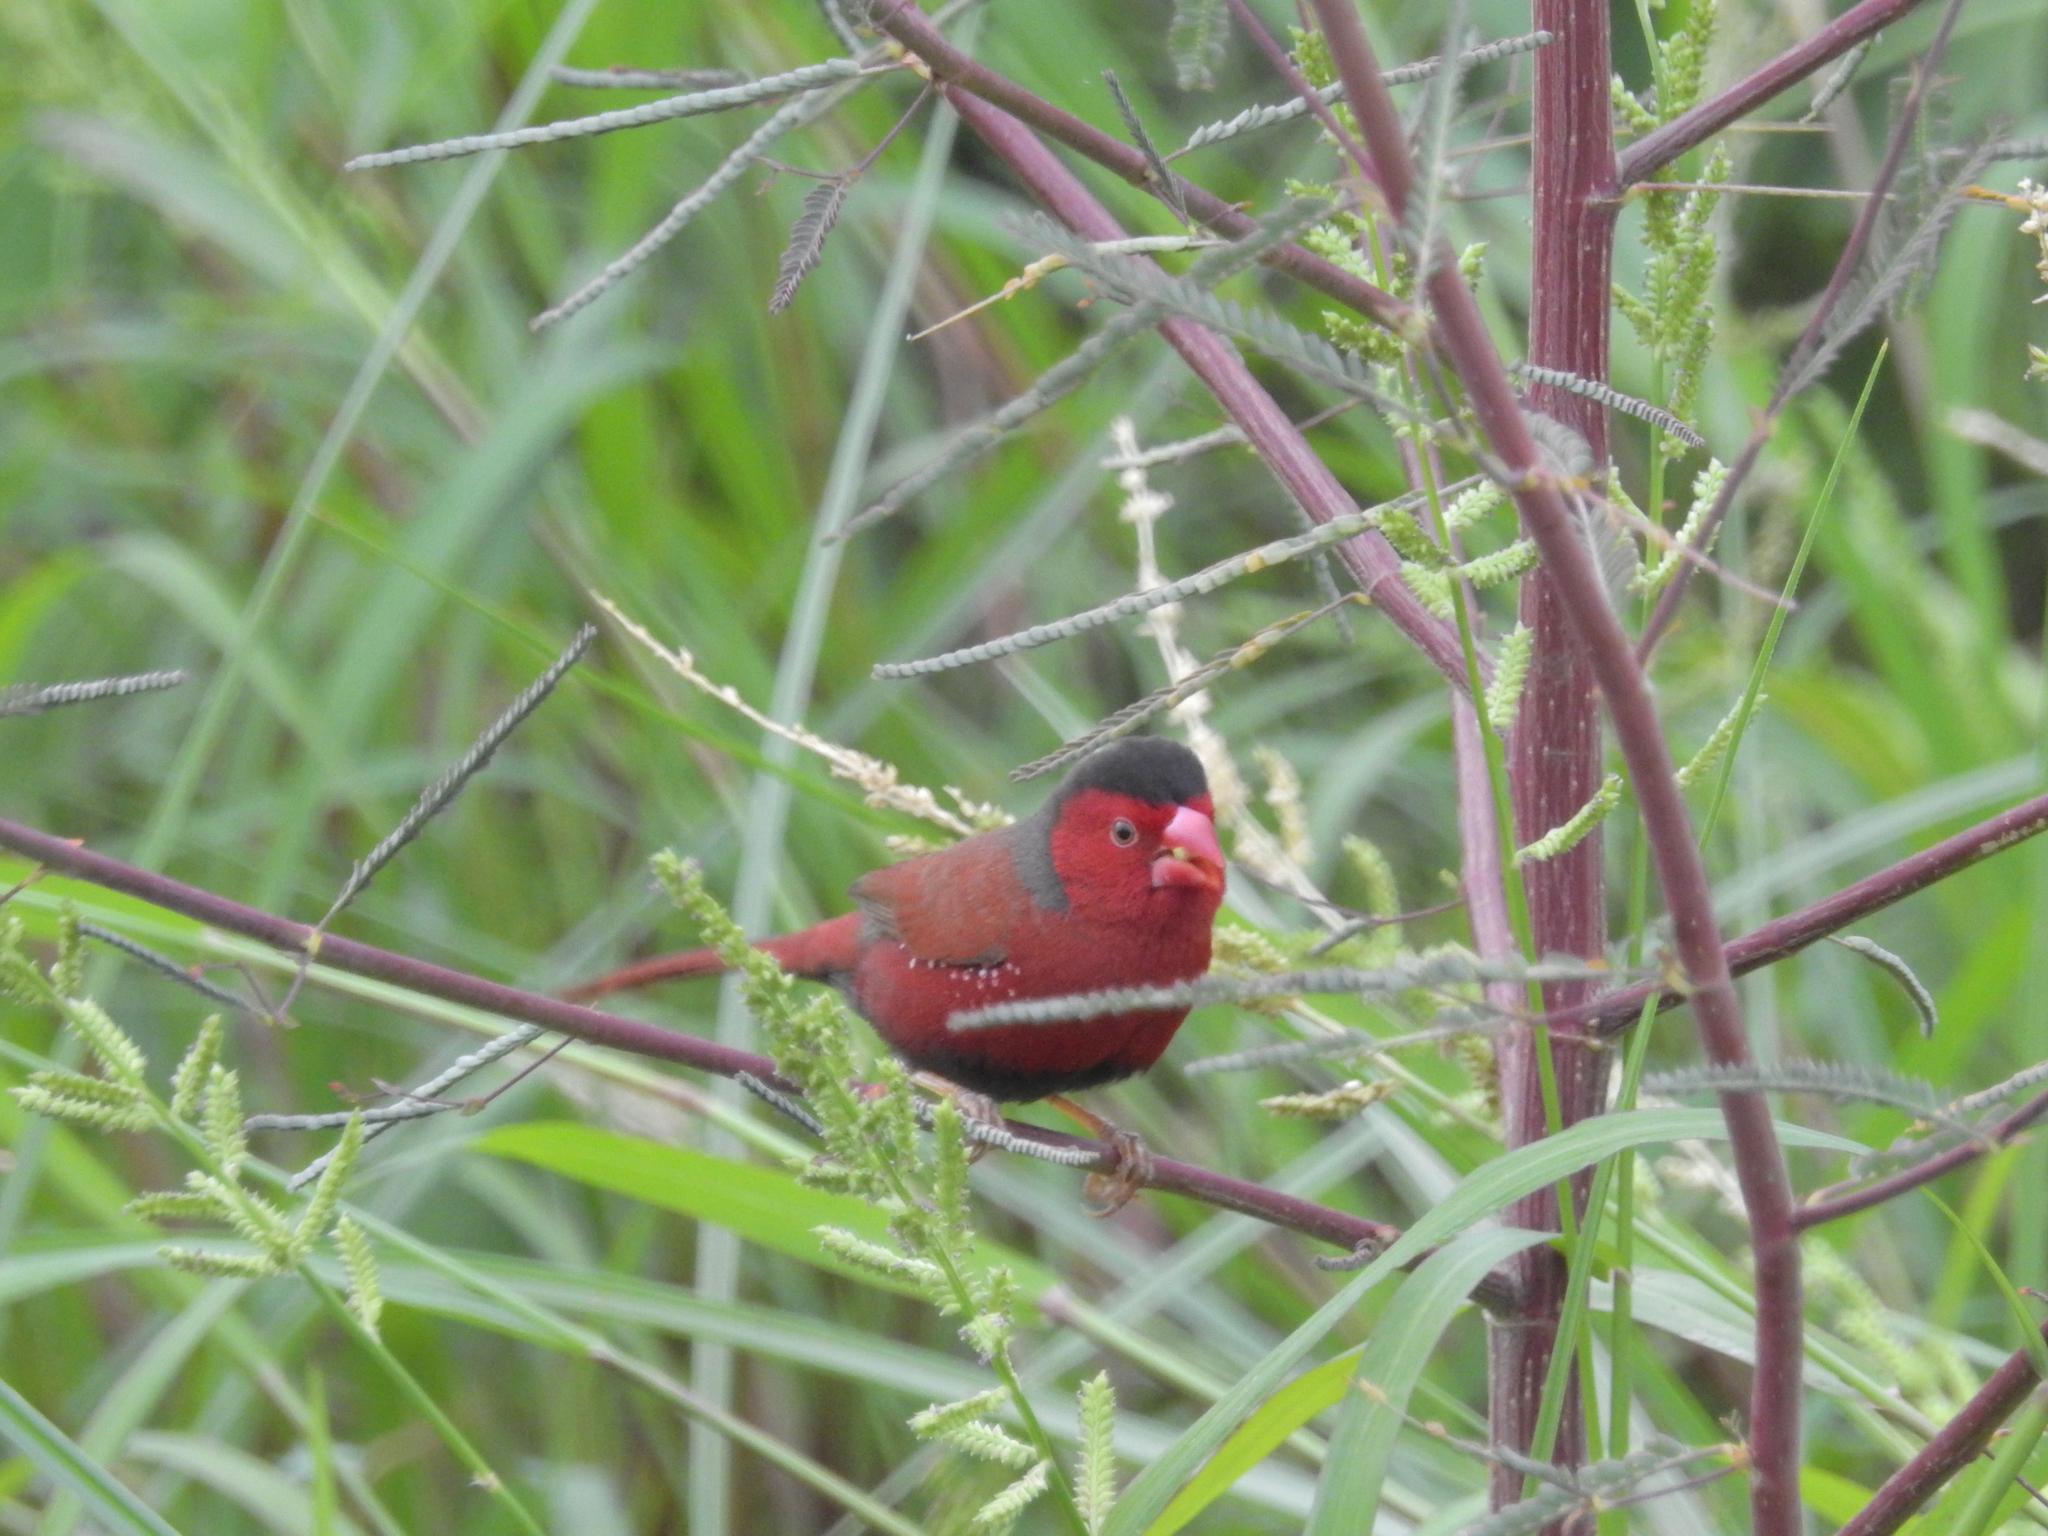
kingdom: Animalia
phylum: Chordata
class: Aves
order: Passeriformes
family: Estrildidae
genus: Neochmia
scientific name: Neochmia phaeton
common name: Crimson finch
